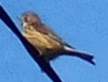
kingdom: Animalia
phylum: Chordata
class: Aves
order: Passeriformes
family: Fringillidae
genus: Linaria
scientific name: Linaria cannabina
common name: Common linnet
